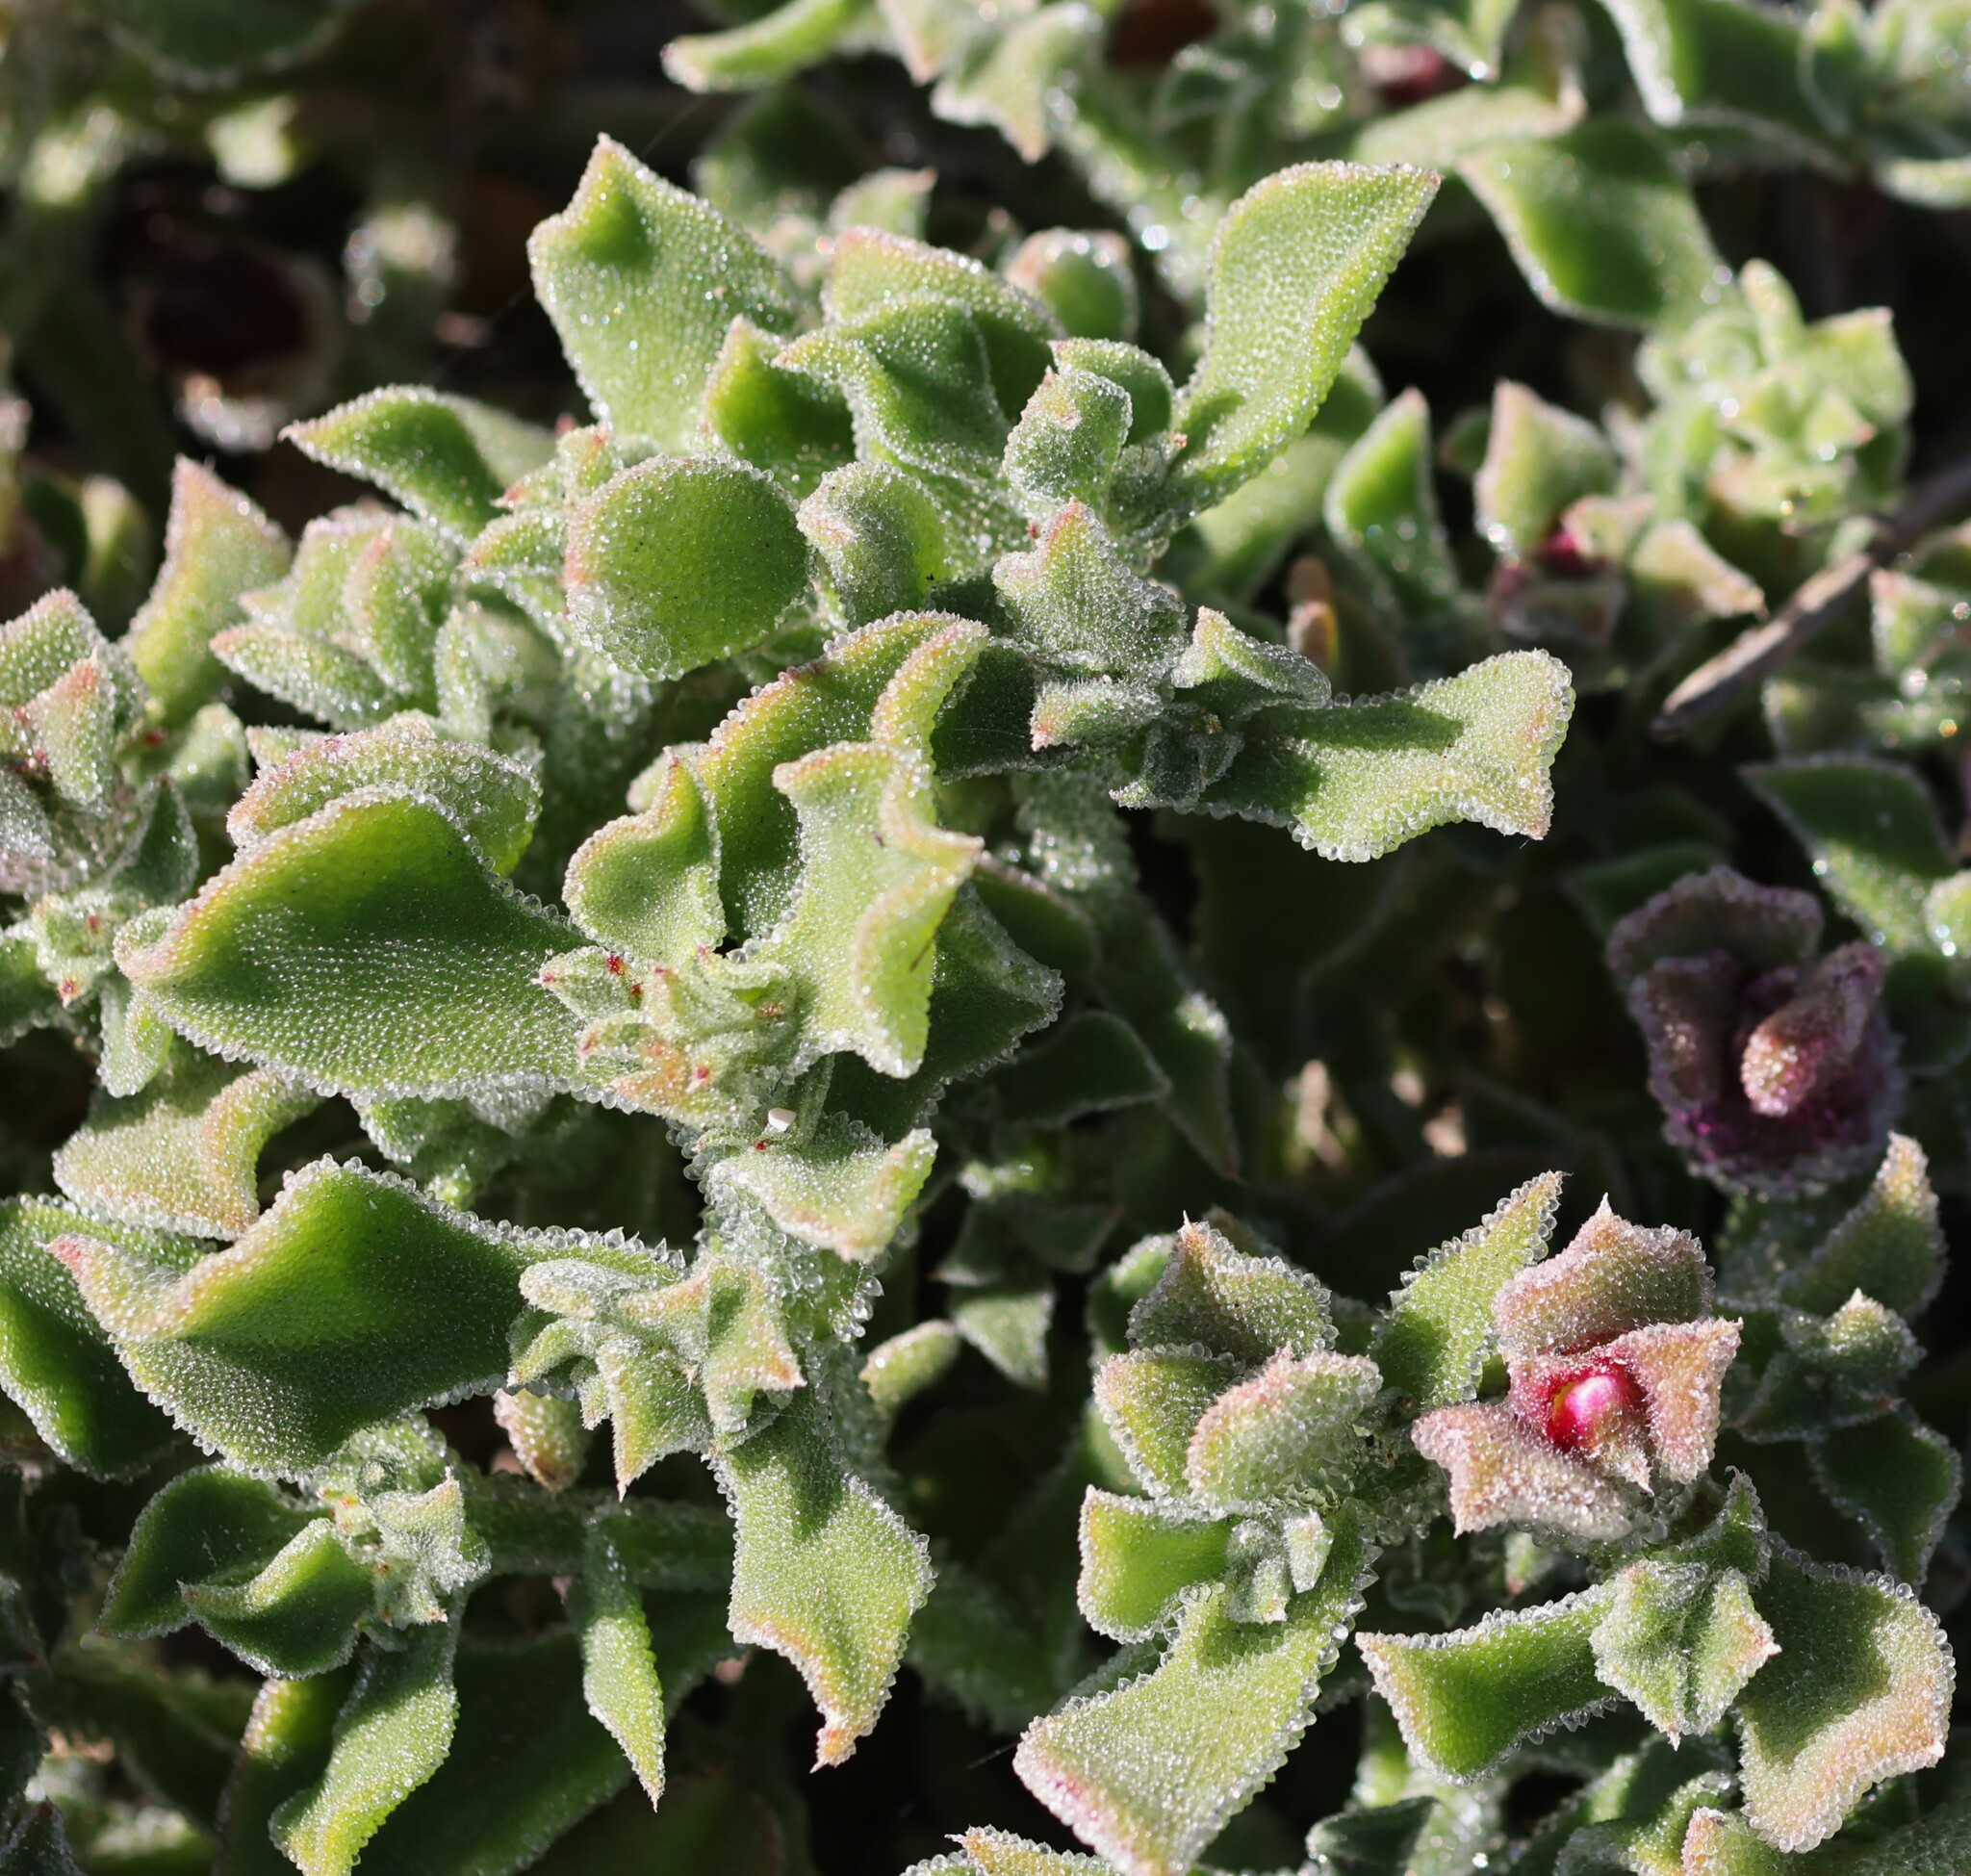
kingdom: Plantae
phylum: Tracheophyta
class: Magnoliopsida
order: Caryophyllales
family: Aizoaceae
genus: Mesembryanthemum
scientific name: Mesembryanthemum crystallinum
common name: Common iceplant
